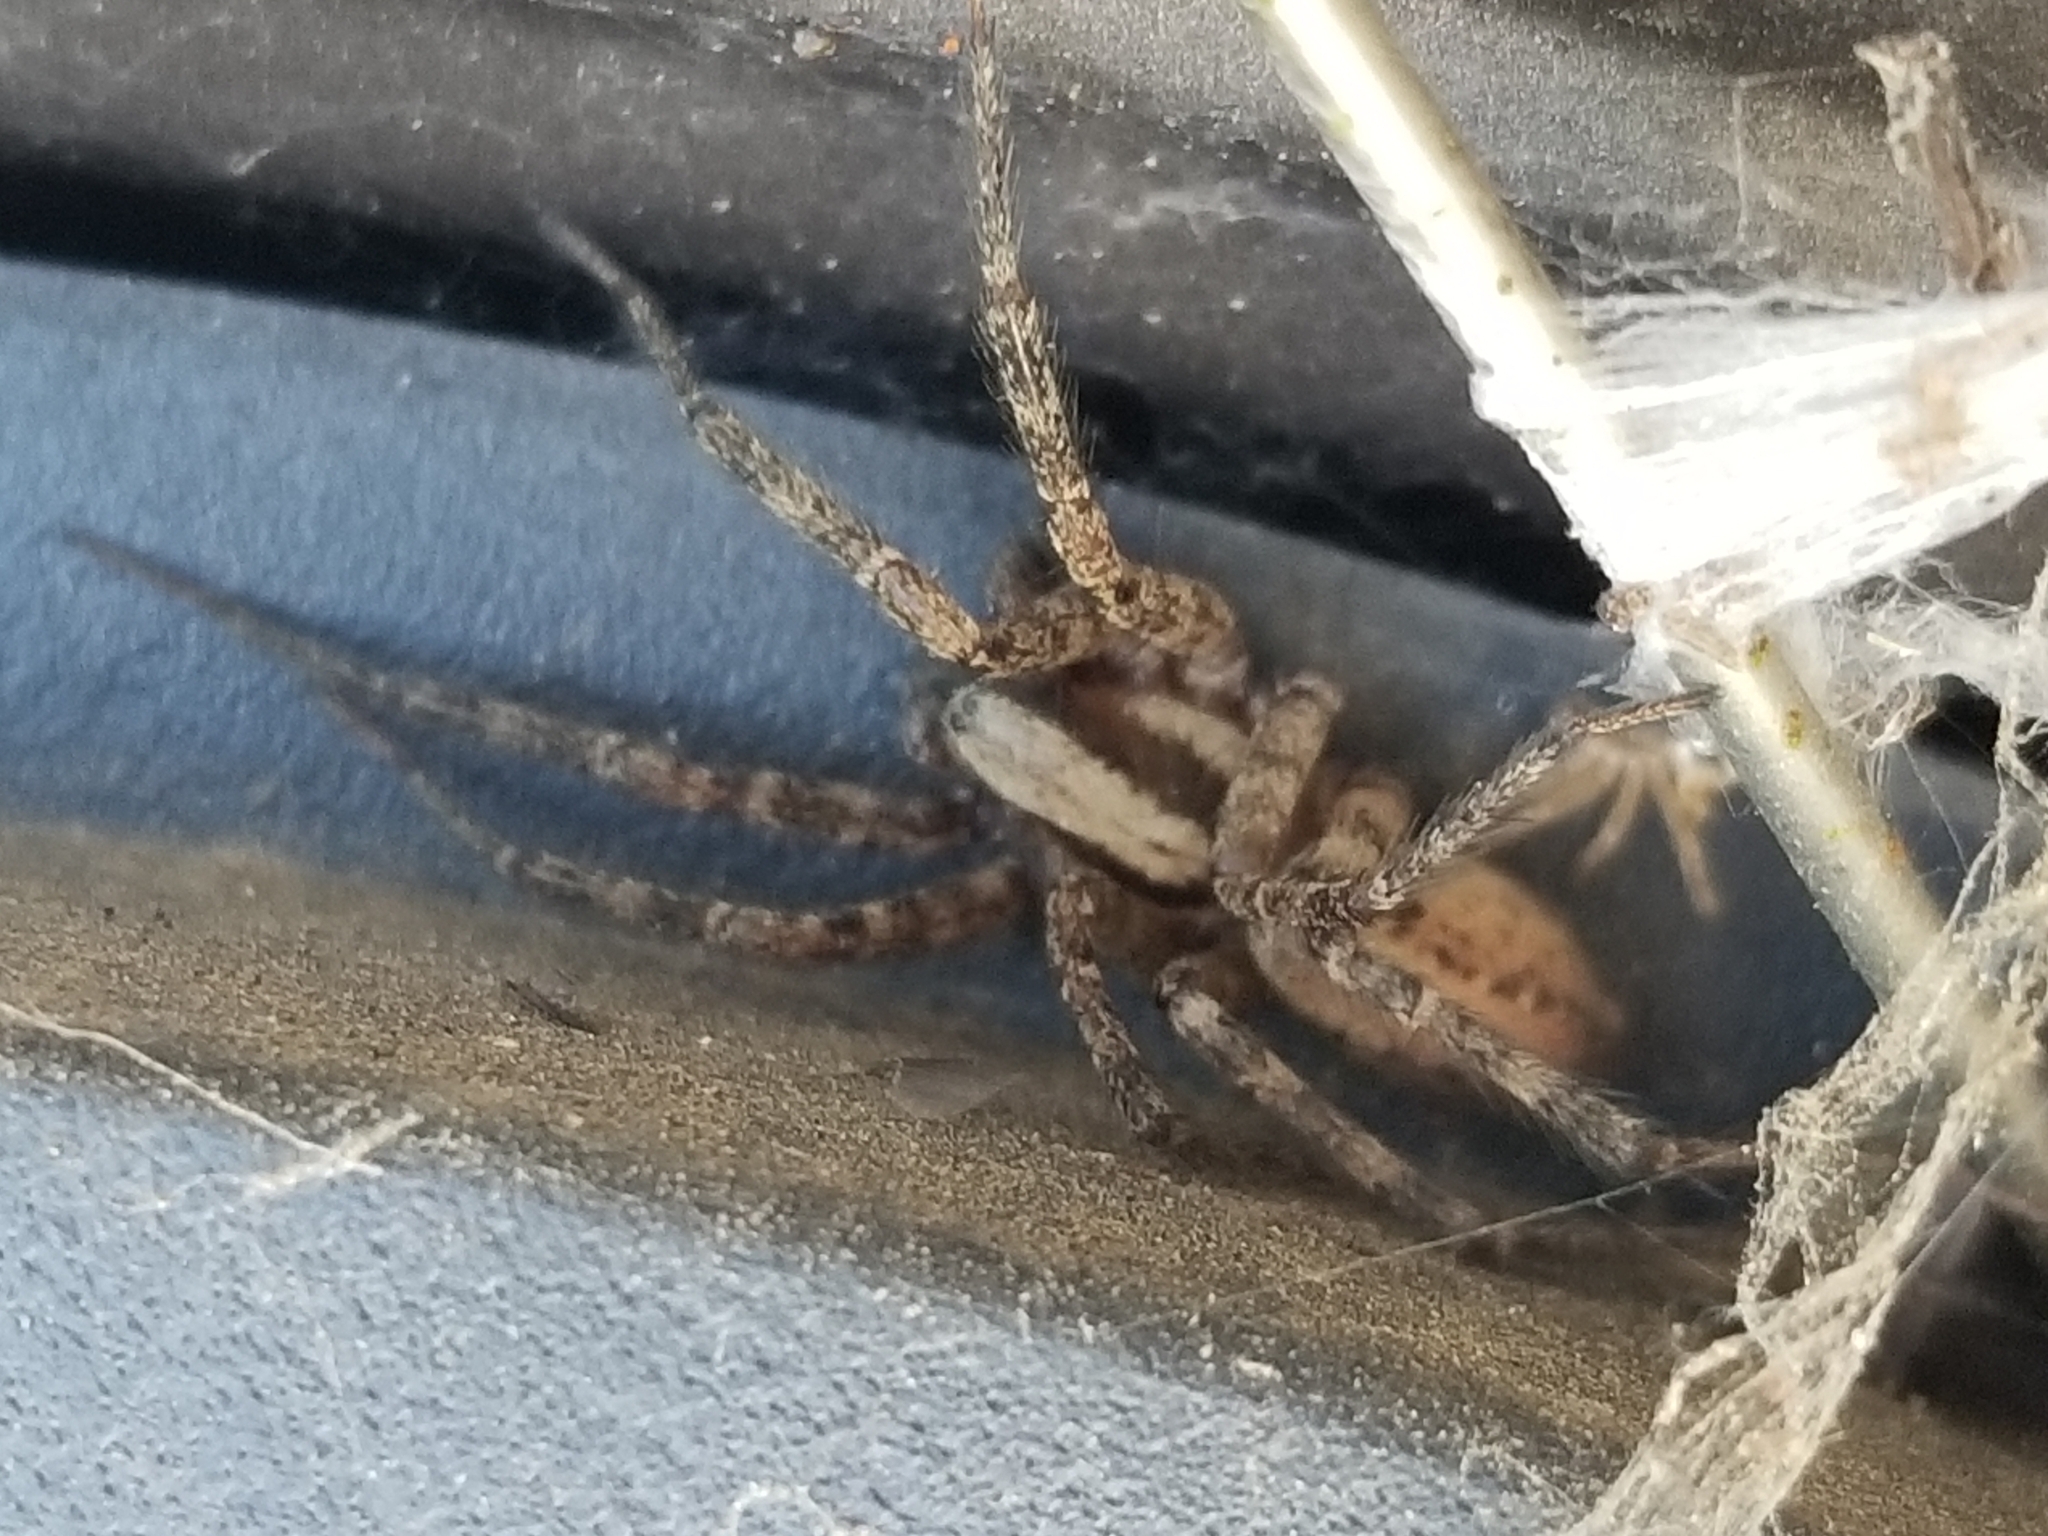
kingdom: Animalia
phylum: Arthropoda
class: Arachnida
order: Araneae
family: Agelenidae
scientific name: Agelenidae
